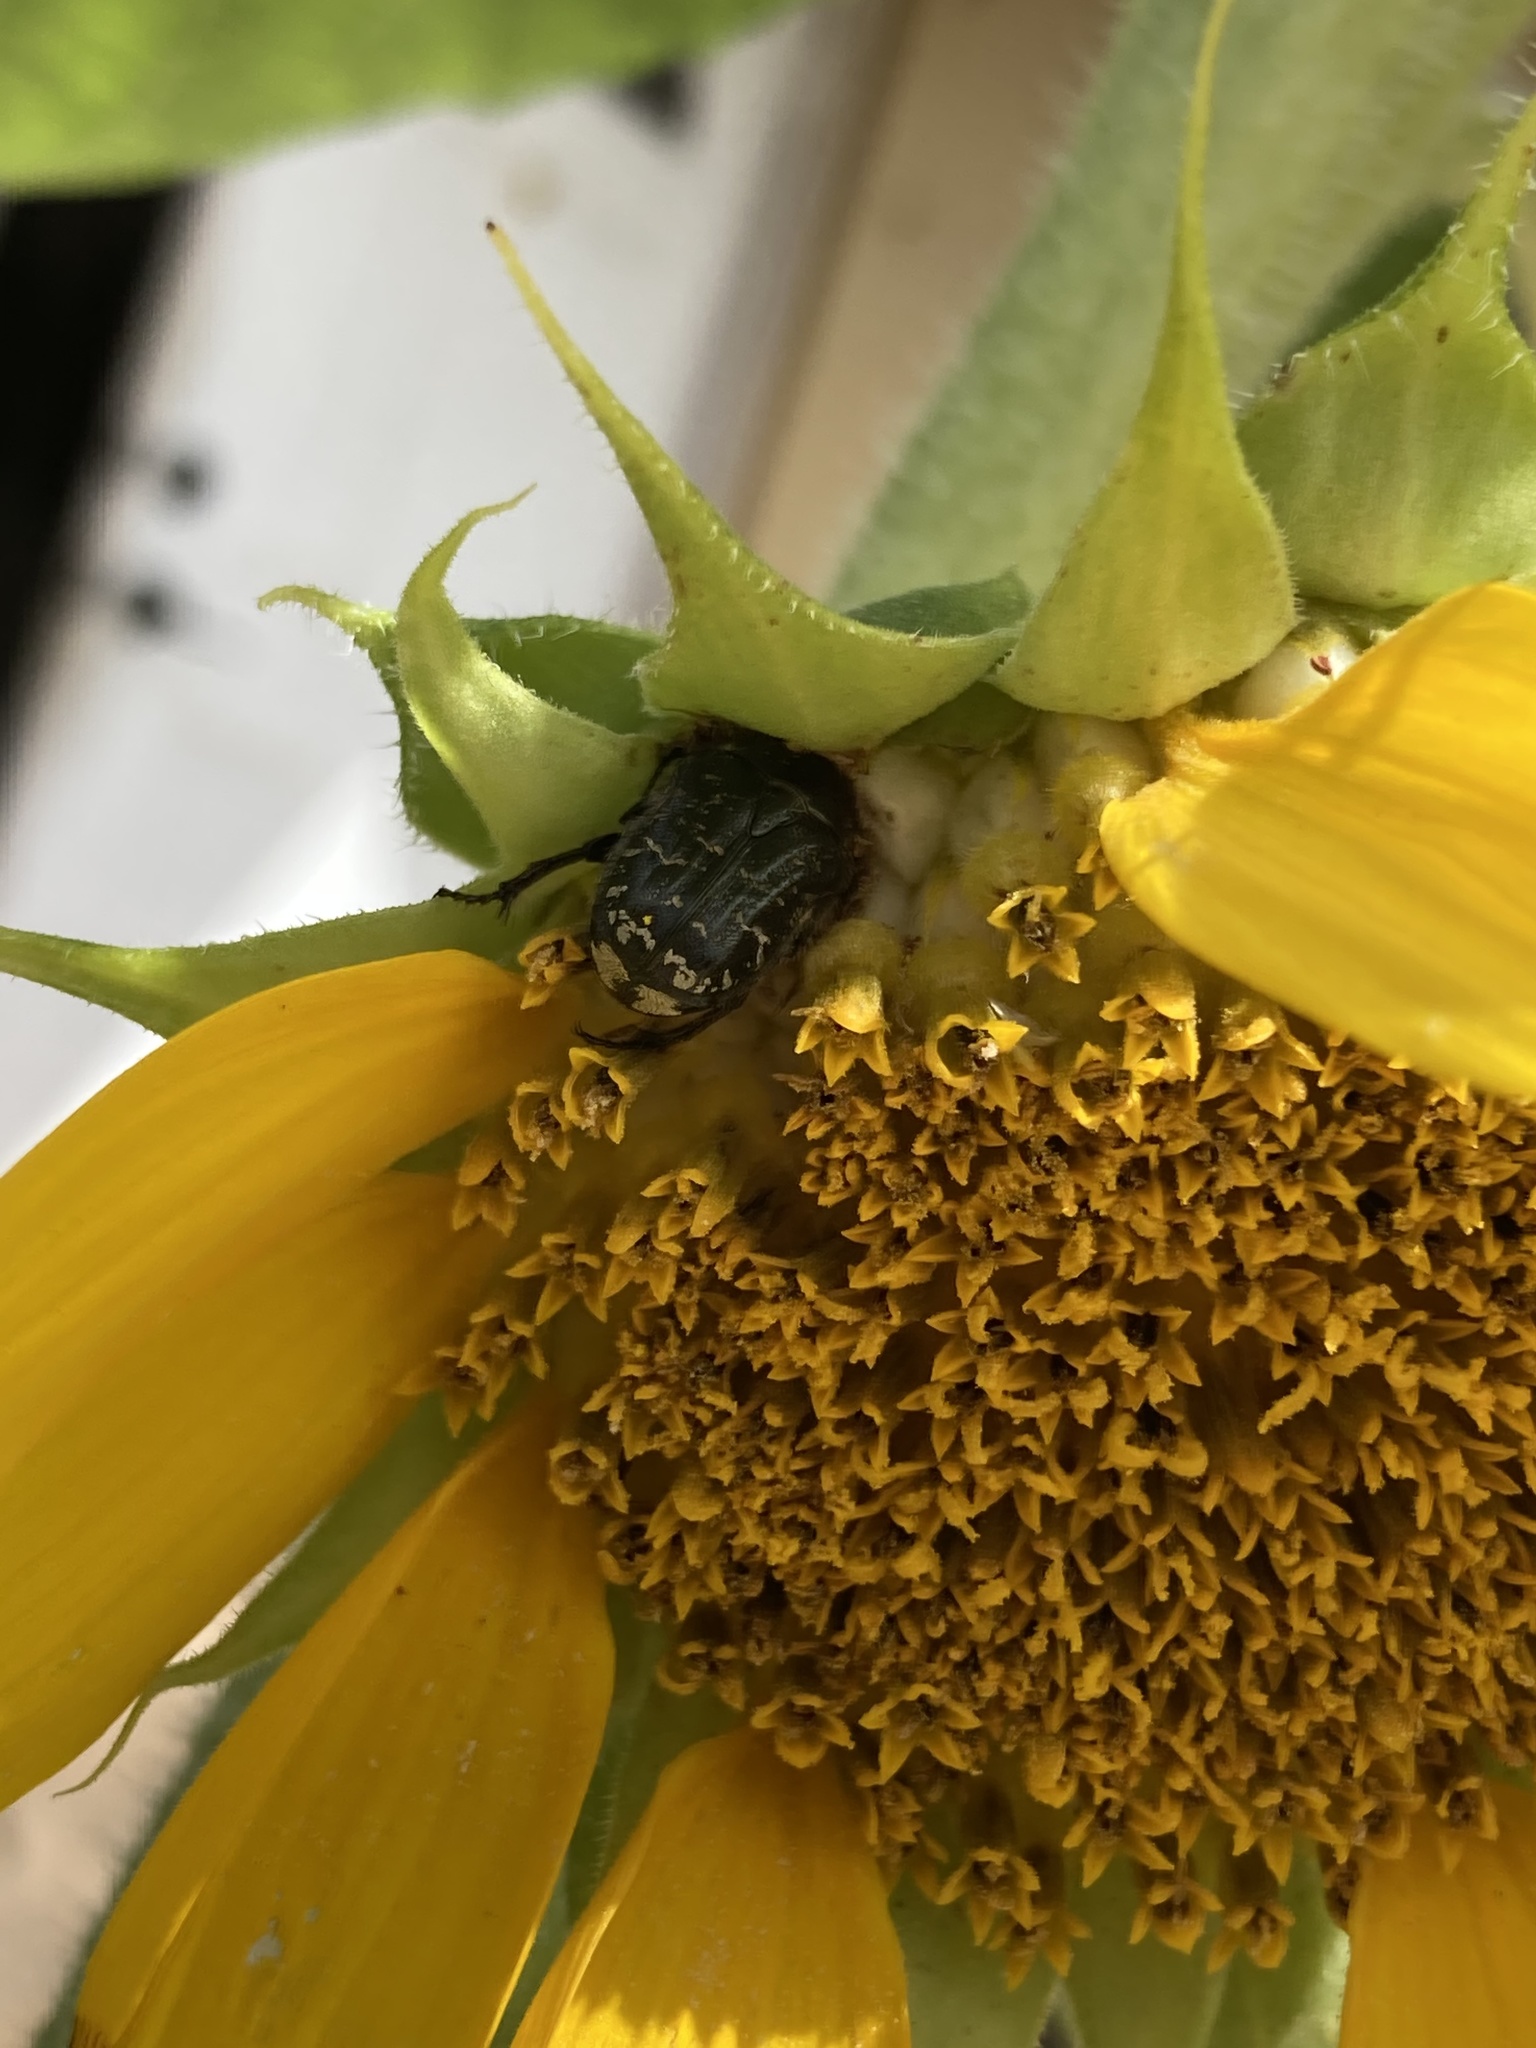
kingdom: Animalia
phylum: Arthropoda
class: Insecta
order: Coleoptera
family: Scarabaeidae
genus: Euphoria
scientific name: Euphoria sepulcralis
